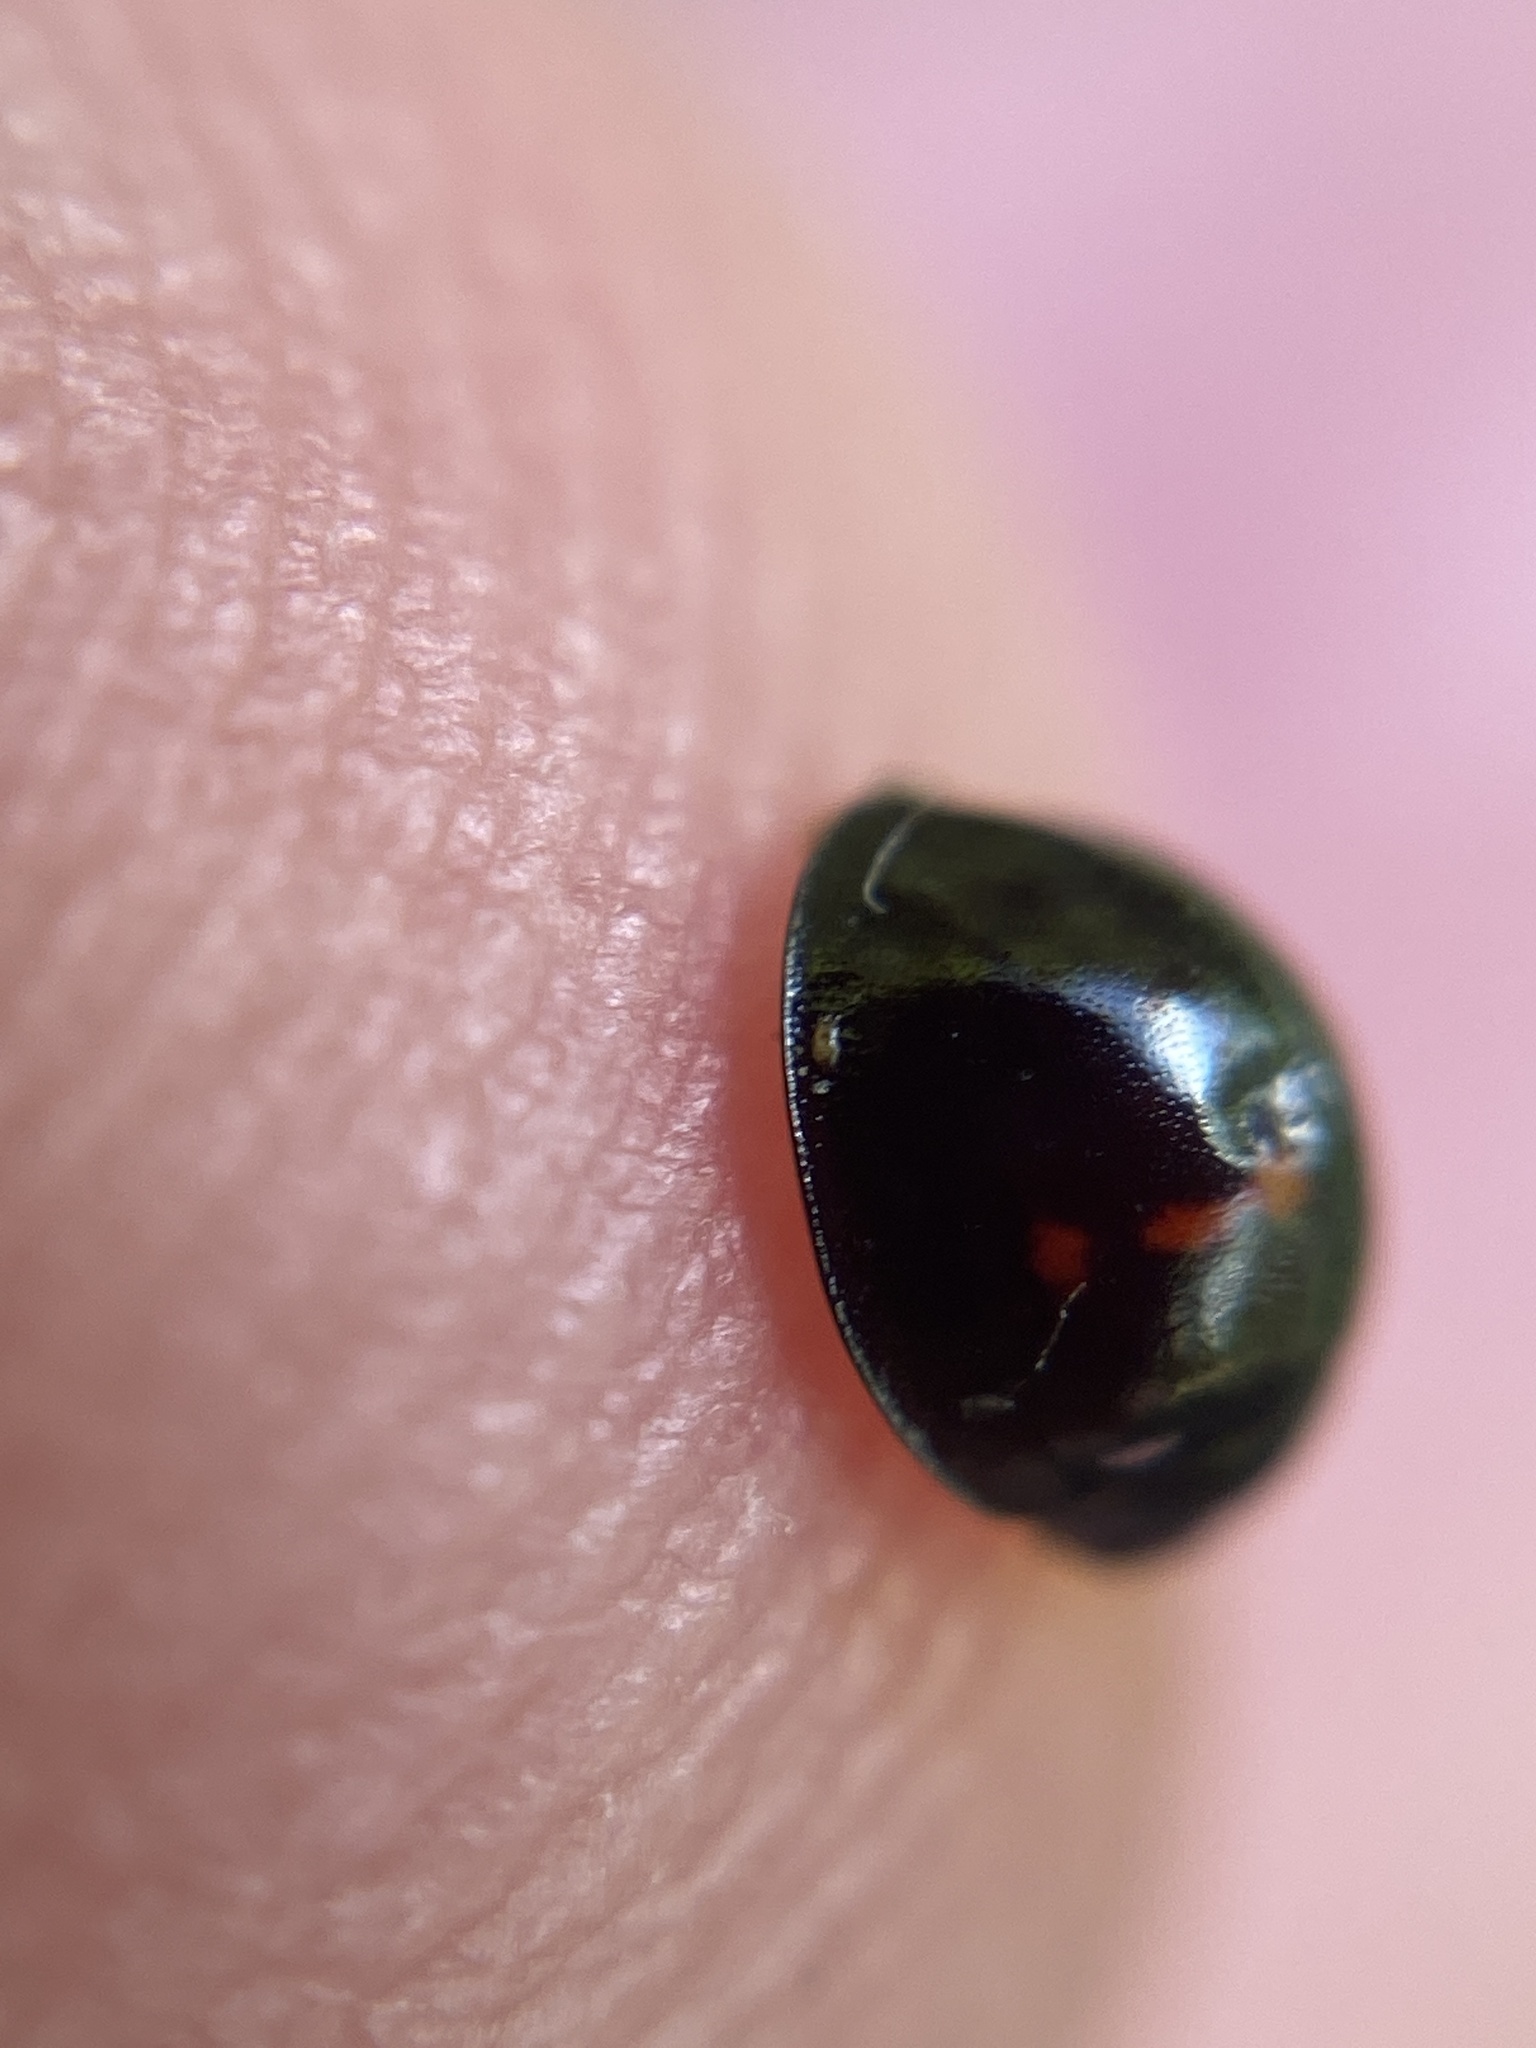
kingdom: Animalia
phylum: Arthropoda
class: Insecta
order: Coleoptera
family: Coccinellidae
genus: Chilocorus
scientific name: Chilocorus bipustulatus
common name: Heather ladybird
